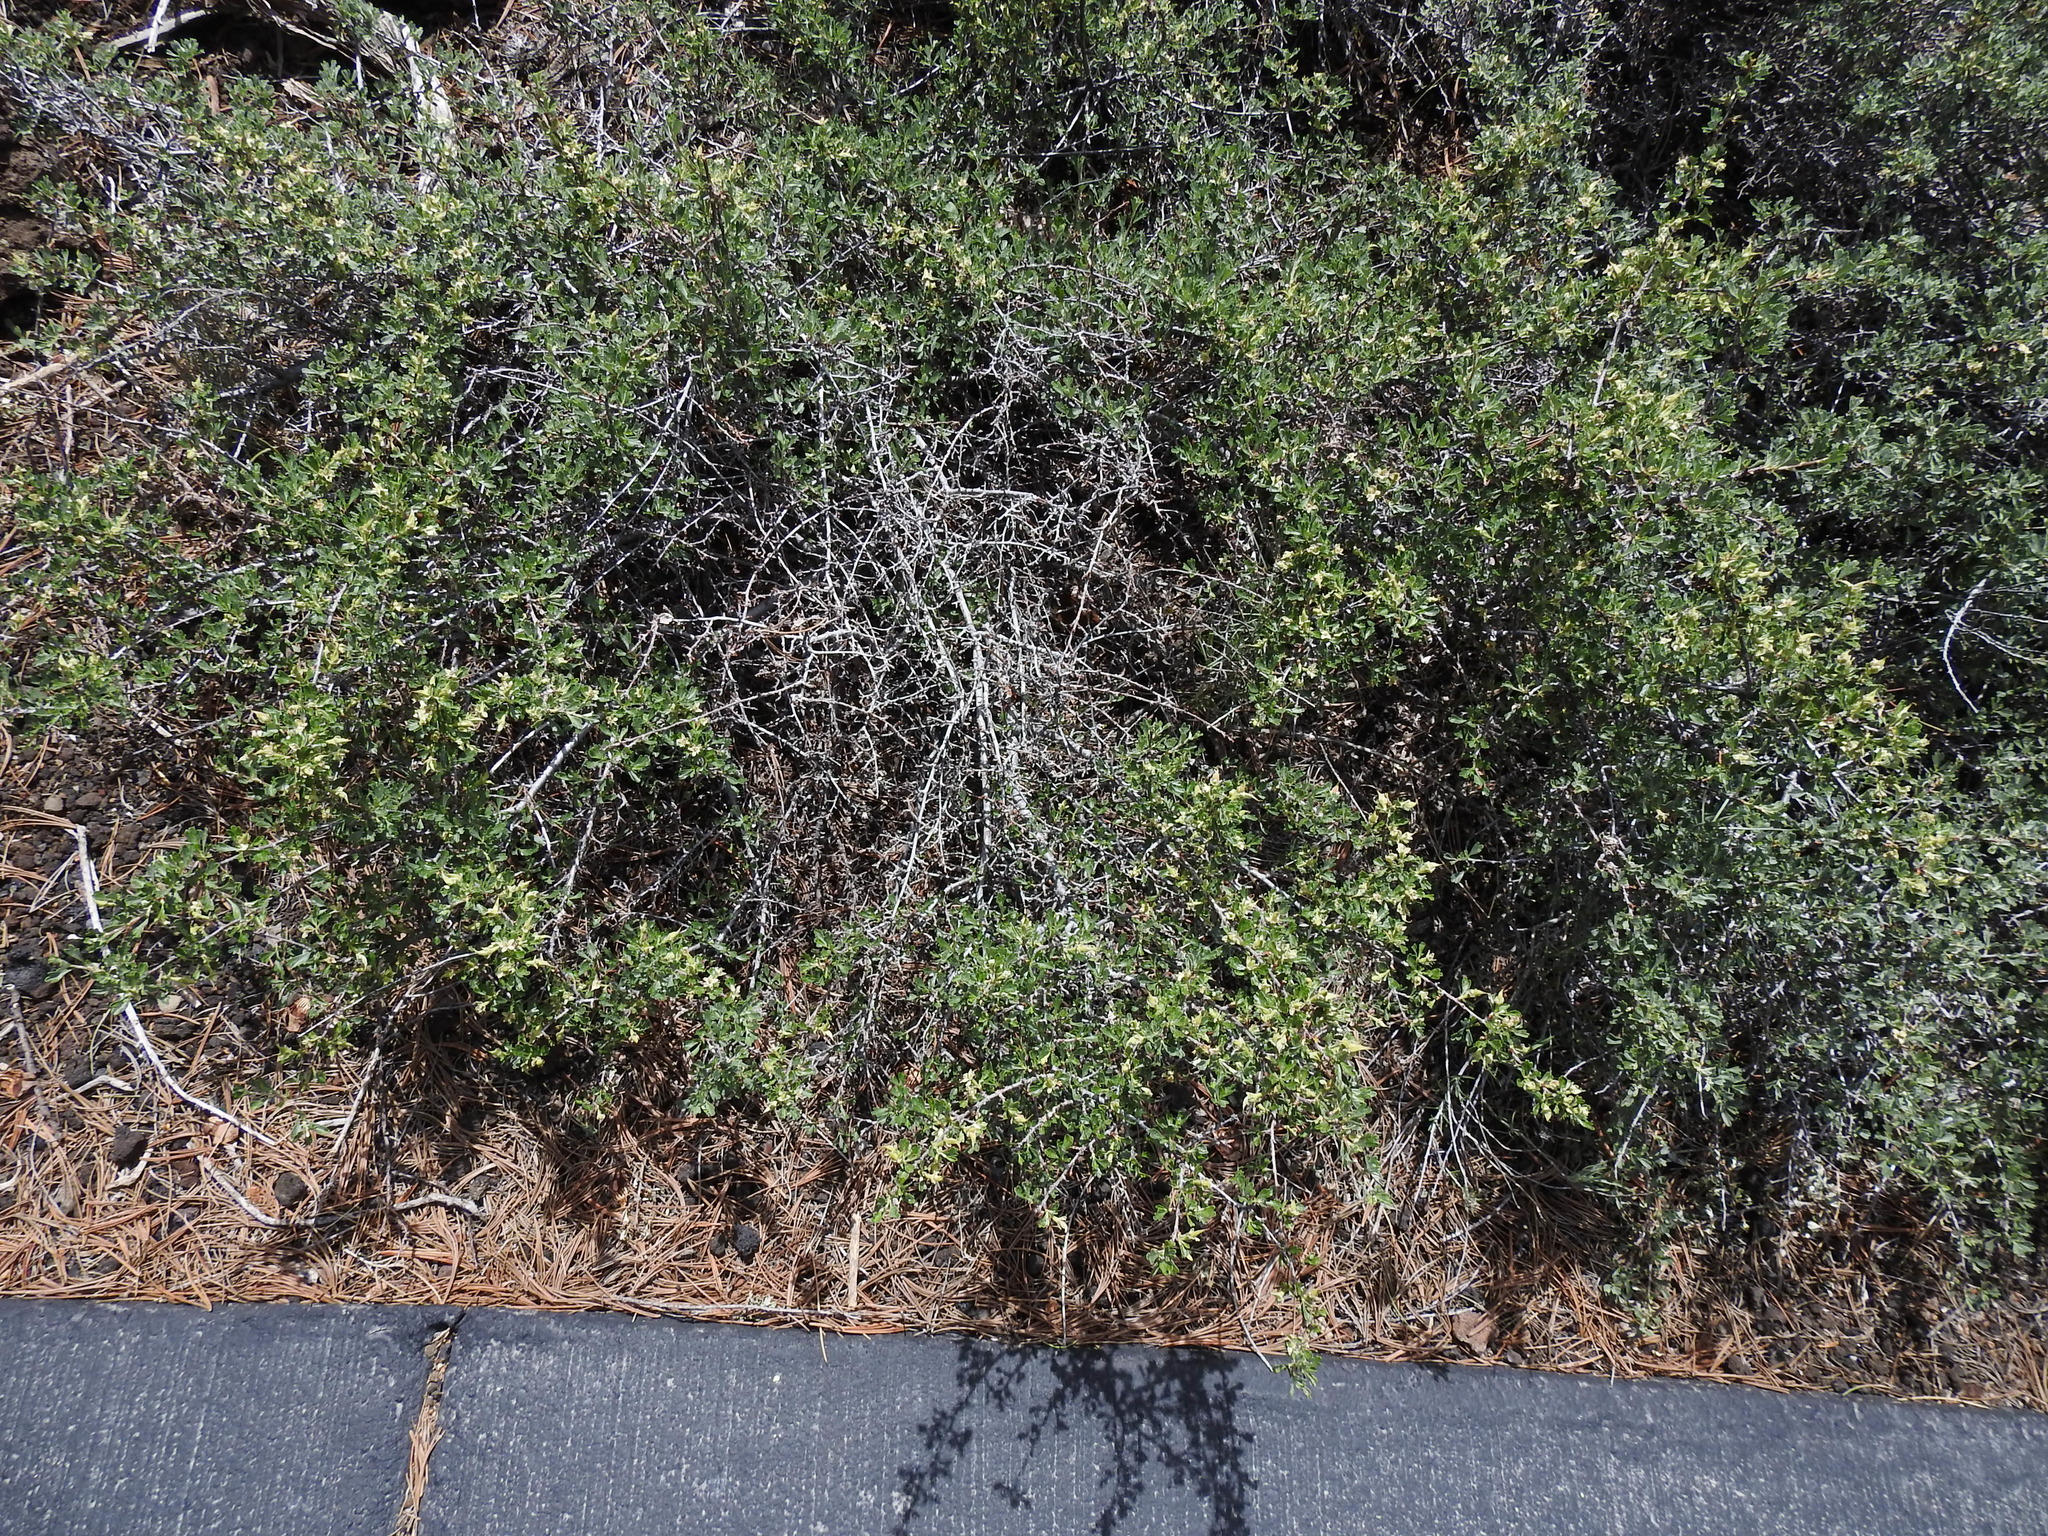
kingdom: Plantae
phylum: Tracheophyta
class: Magnoliopsida
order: Rosales
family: Rosaceae
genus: Purshia
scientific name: Purshia tridentata
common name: Antelope bitterbrush
